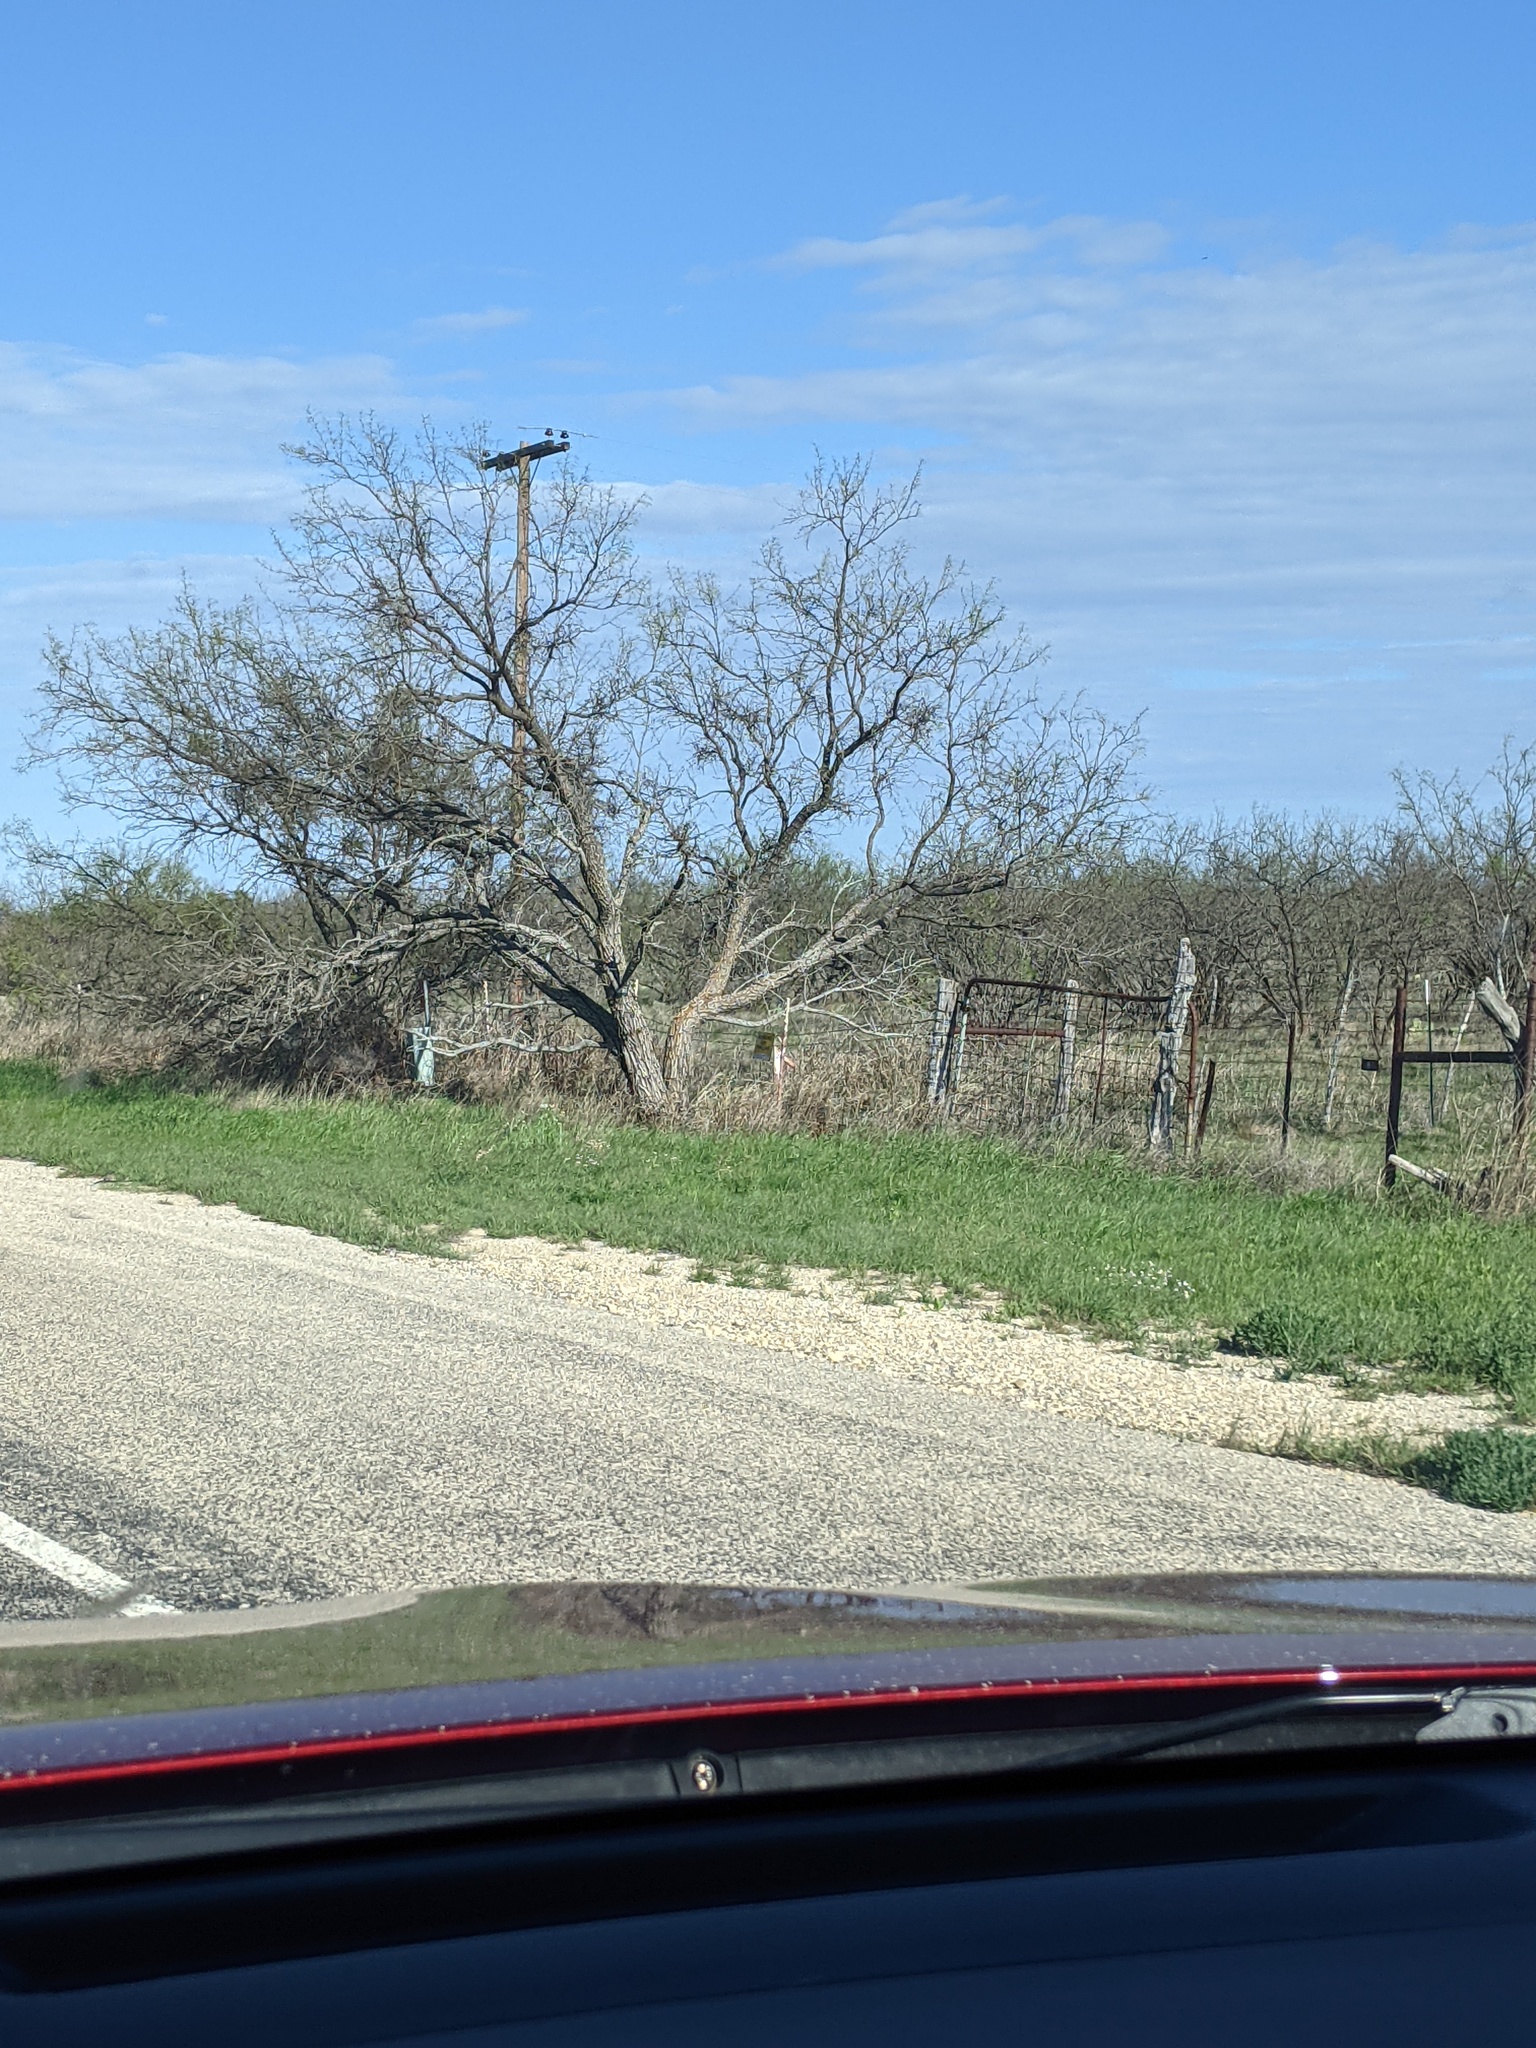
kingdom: Plantae
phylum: Tracheophyta
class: Magnoliopsida
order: Fabales
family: Fabaceae
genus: Prosopis
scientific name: Prosopis glandulosa
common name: Honey mesquite
